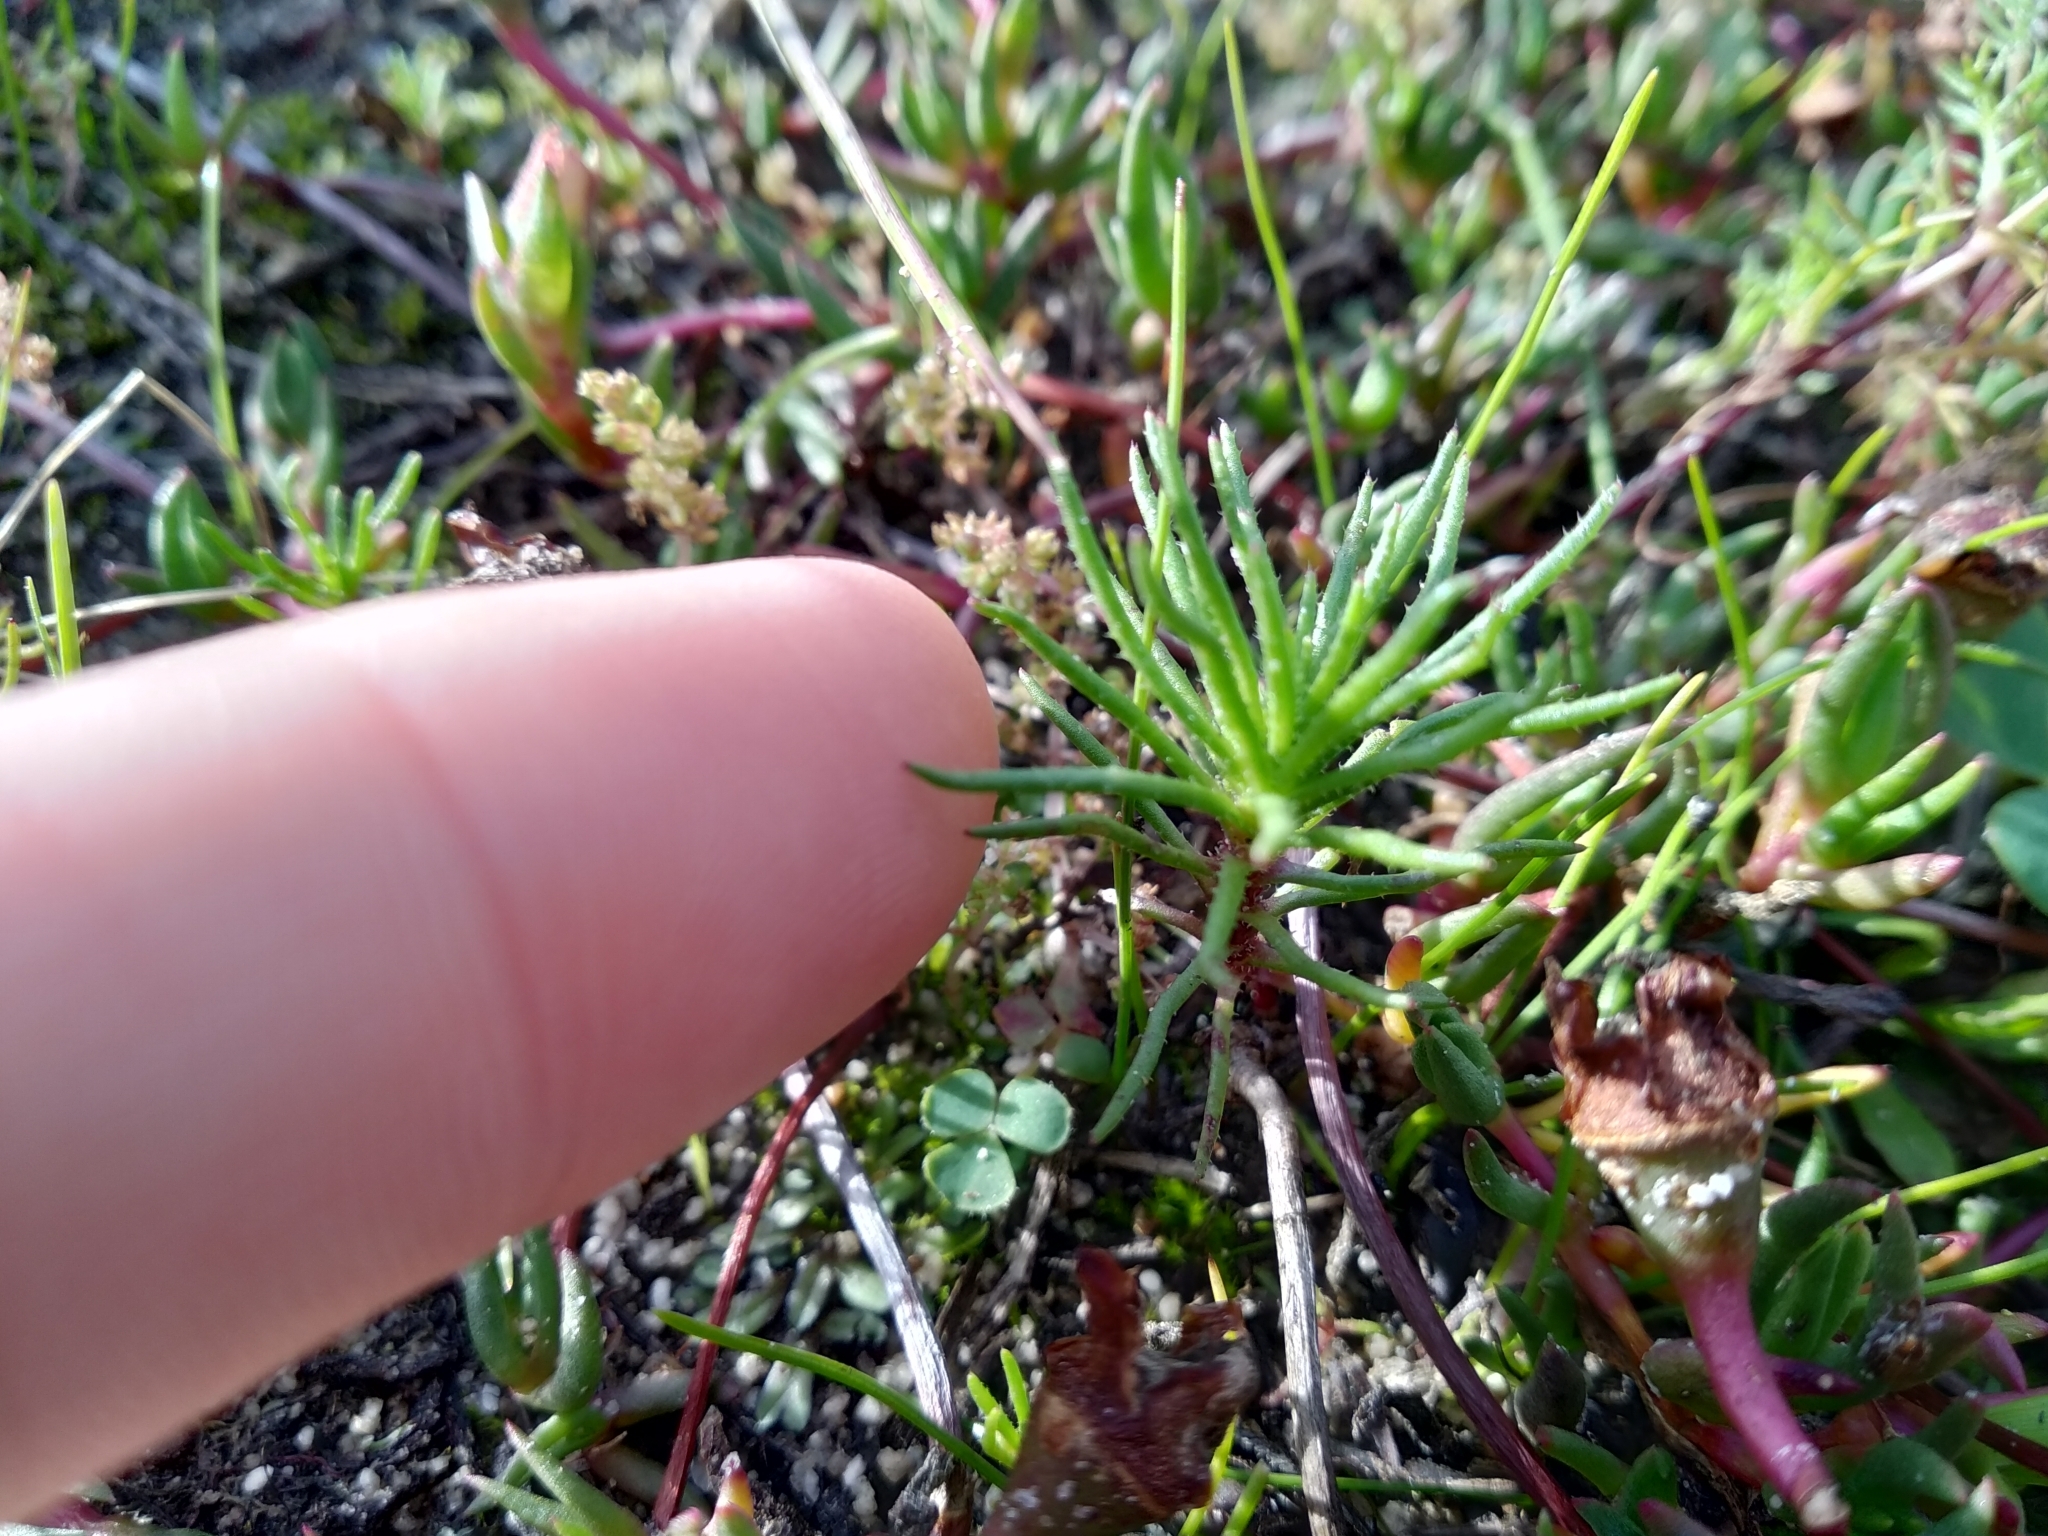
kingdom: Plantae
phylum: Tracheophyta
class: Magnoliopsida
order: Asterales
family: Asteraceae
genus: Felicia
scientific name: Felicia tenella
